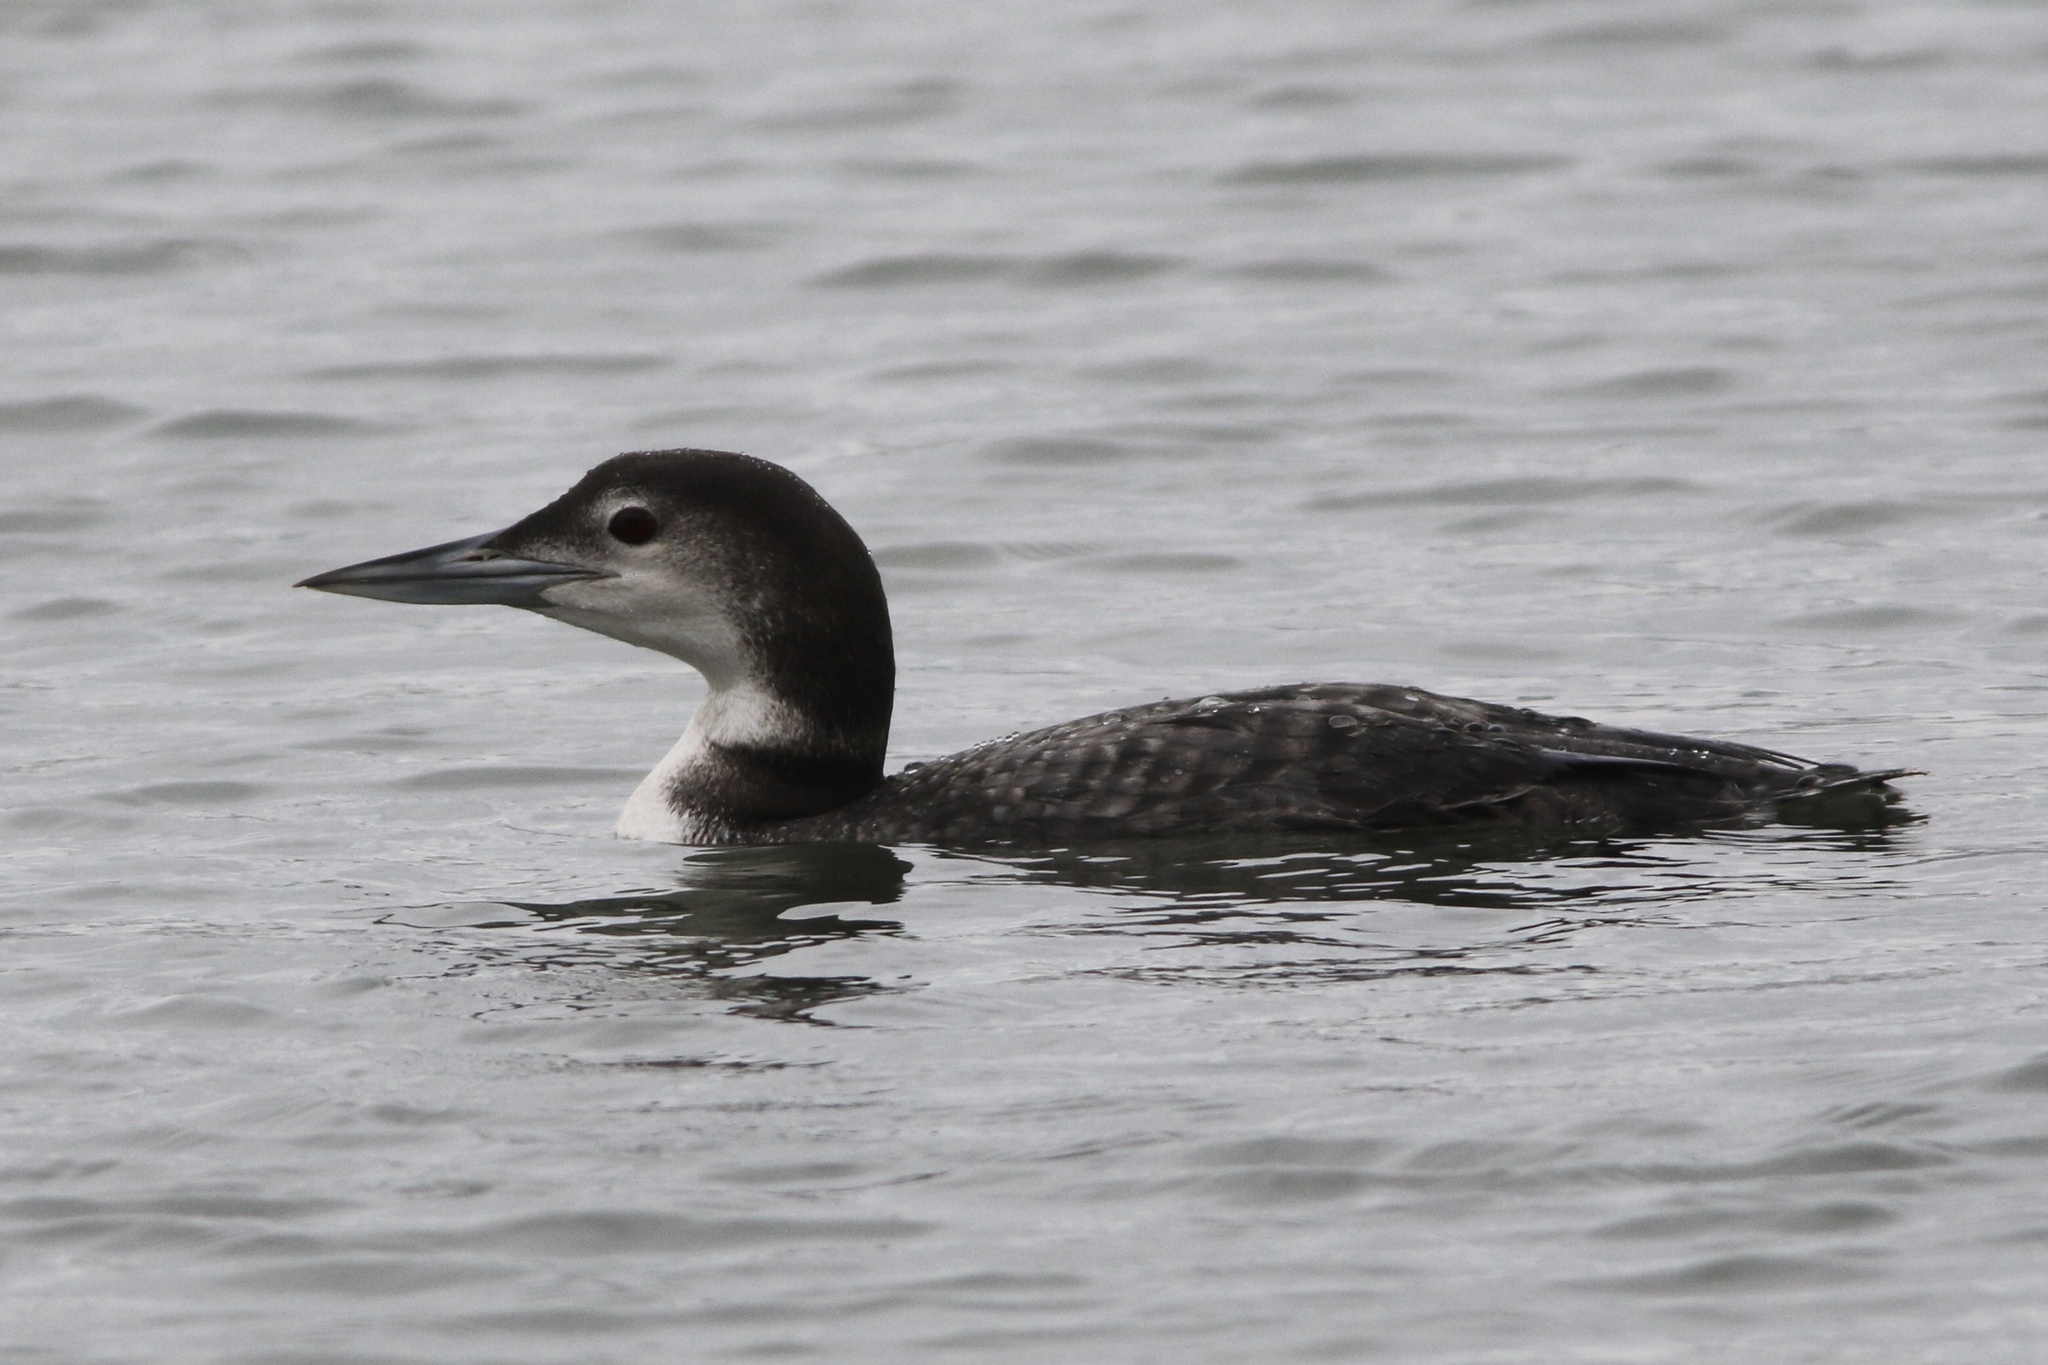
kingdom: Animalia
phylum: Chordata
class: Aves
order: Gaviiformes
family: Gaviidae
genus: Gavia
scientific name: Gavia immer
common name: Common loon
